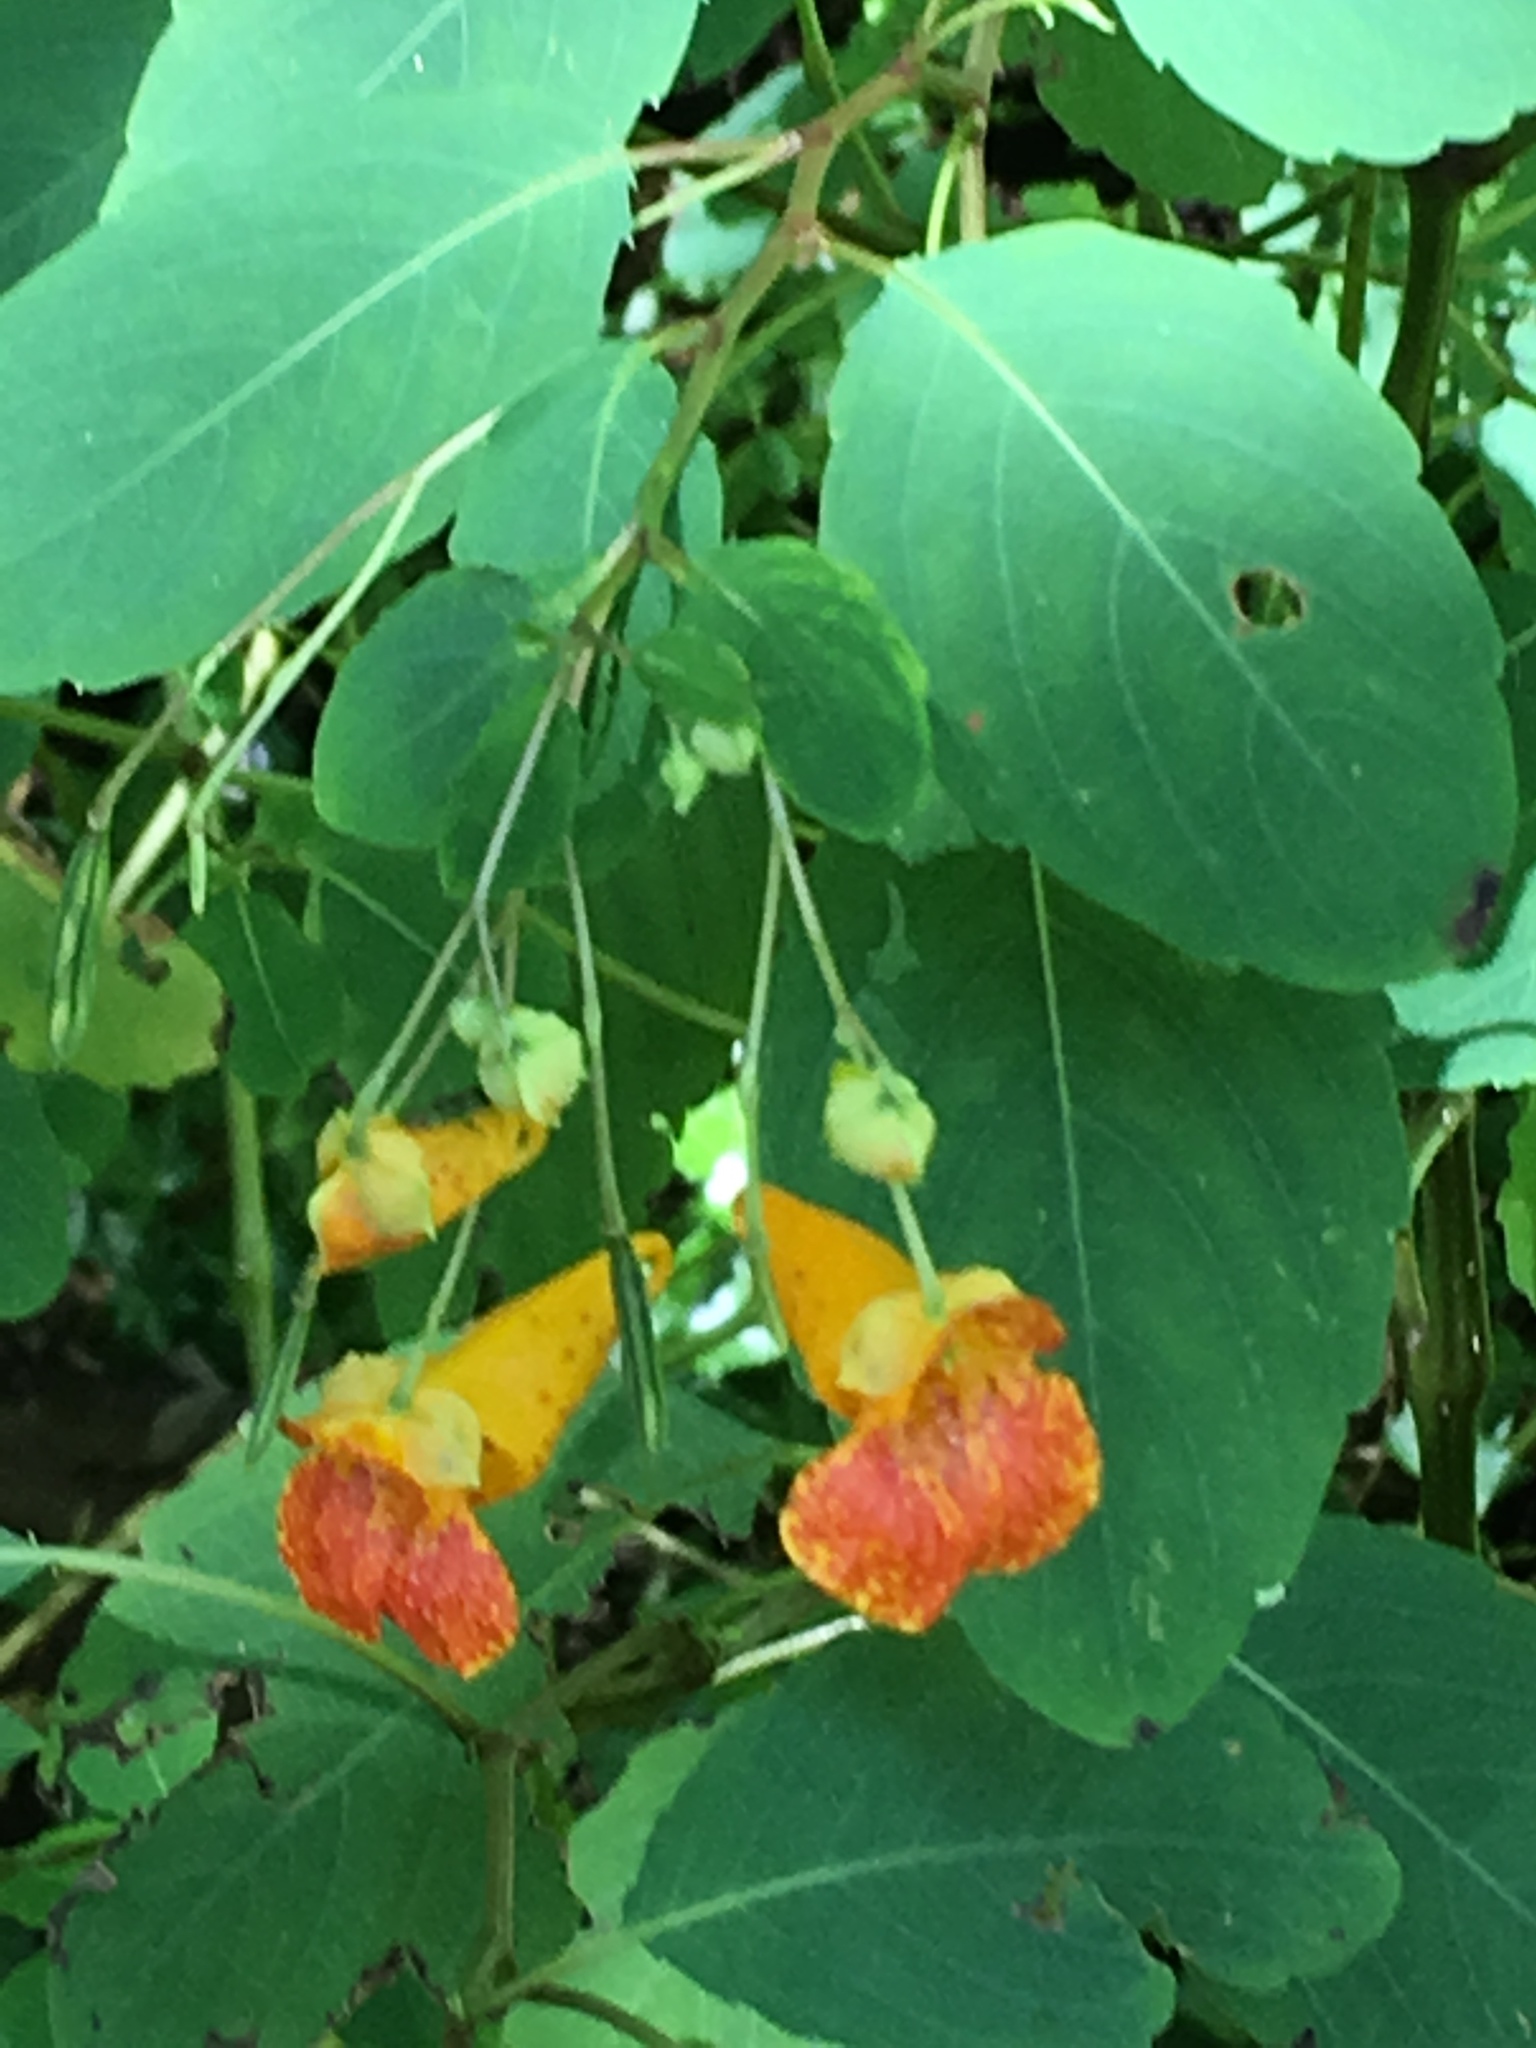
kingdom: Plantae
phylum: Tracheophyta
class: Magnoliopsida
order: Ericales
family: Balsaminaceae
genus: Impatiens
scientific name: Impatiens capensis
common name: Orange balsam
